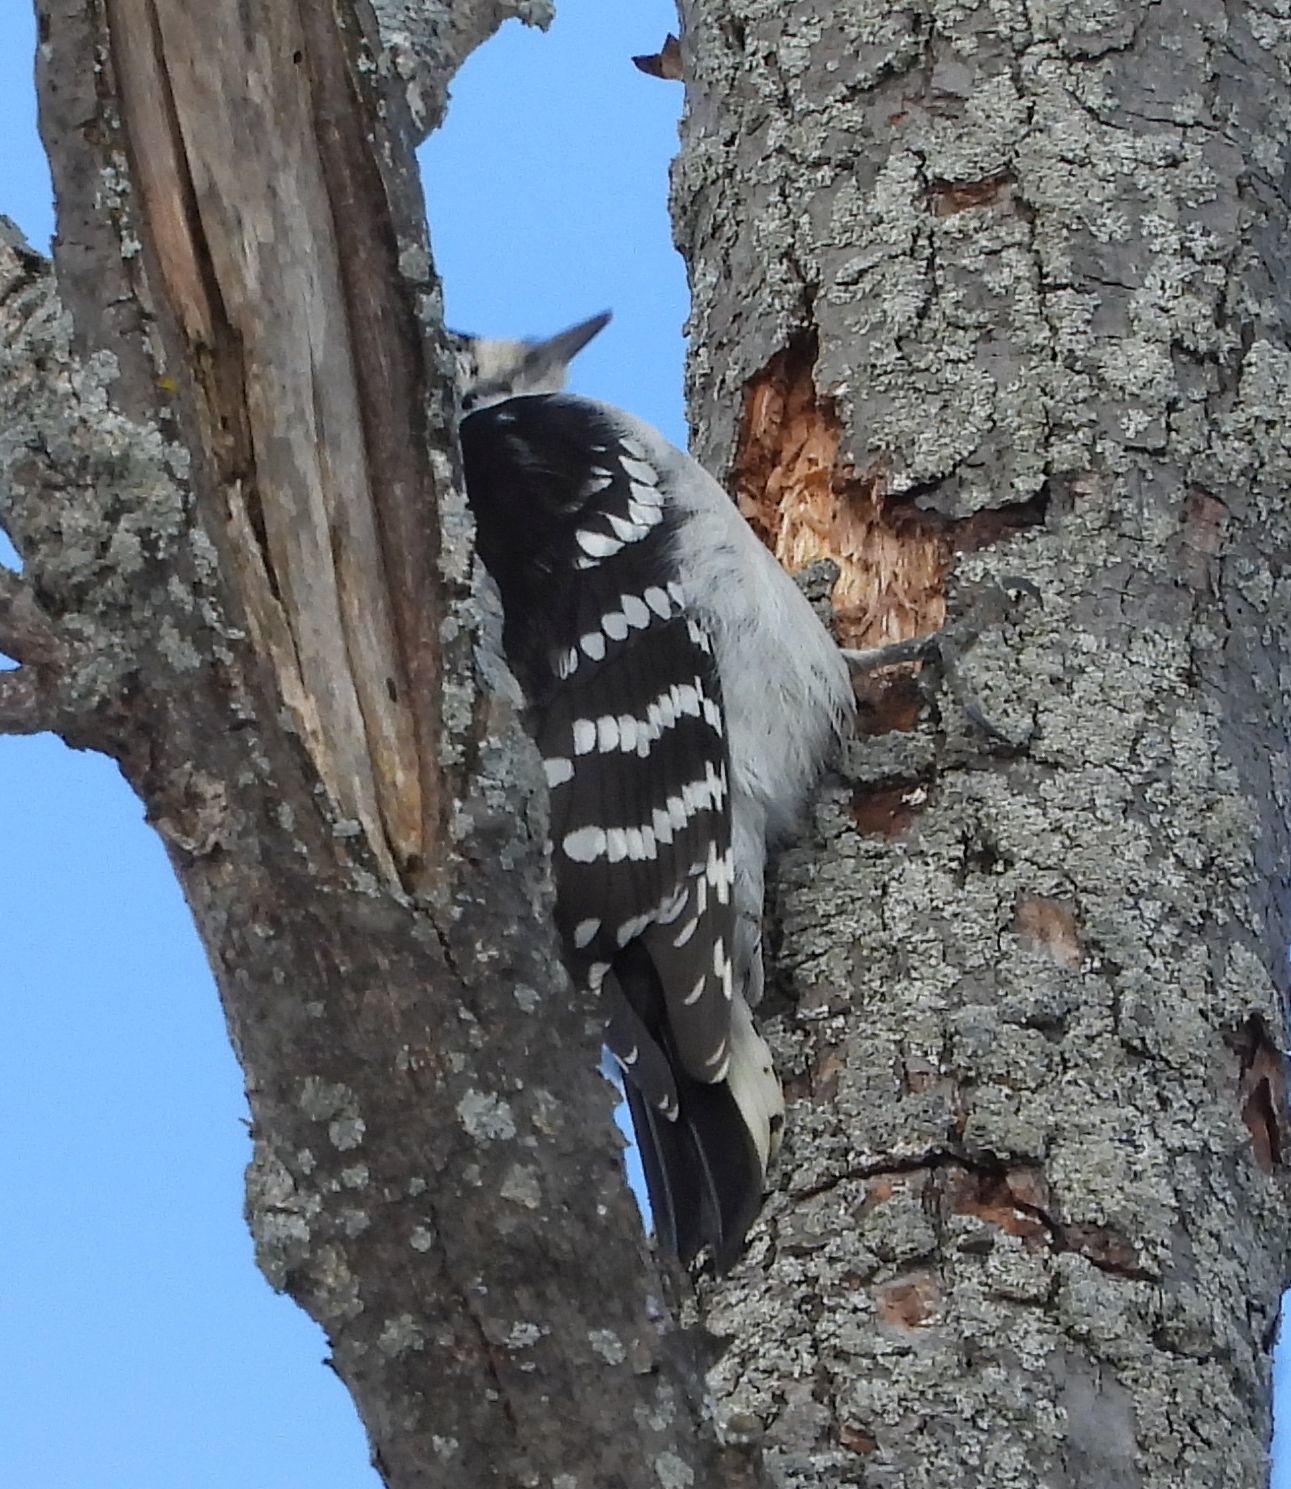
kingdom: Animalia
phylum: Chordata
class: Aves
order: Piciformes
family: Picidae
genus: Dryobates
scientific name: Dryobates pubescens
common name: Downy woodpecker
